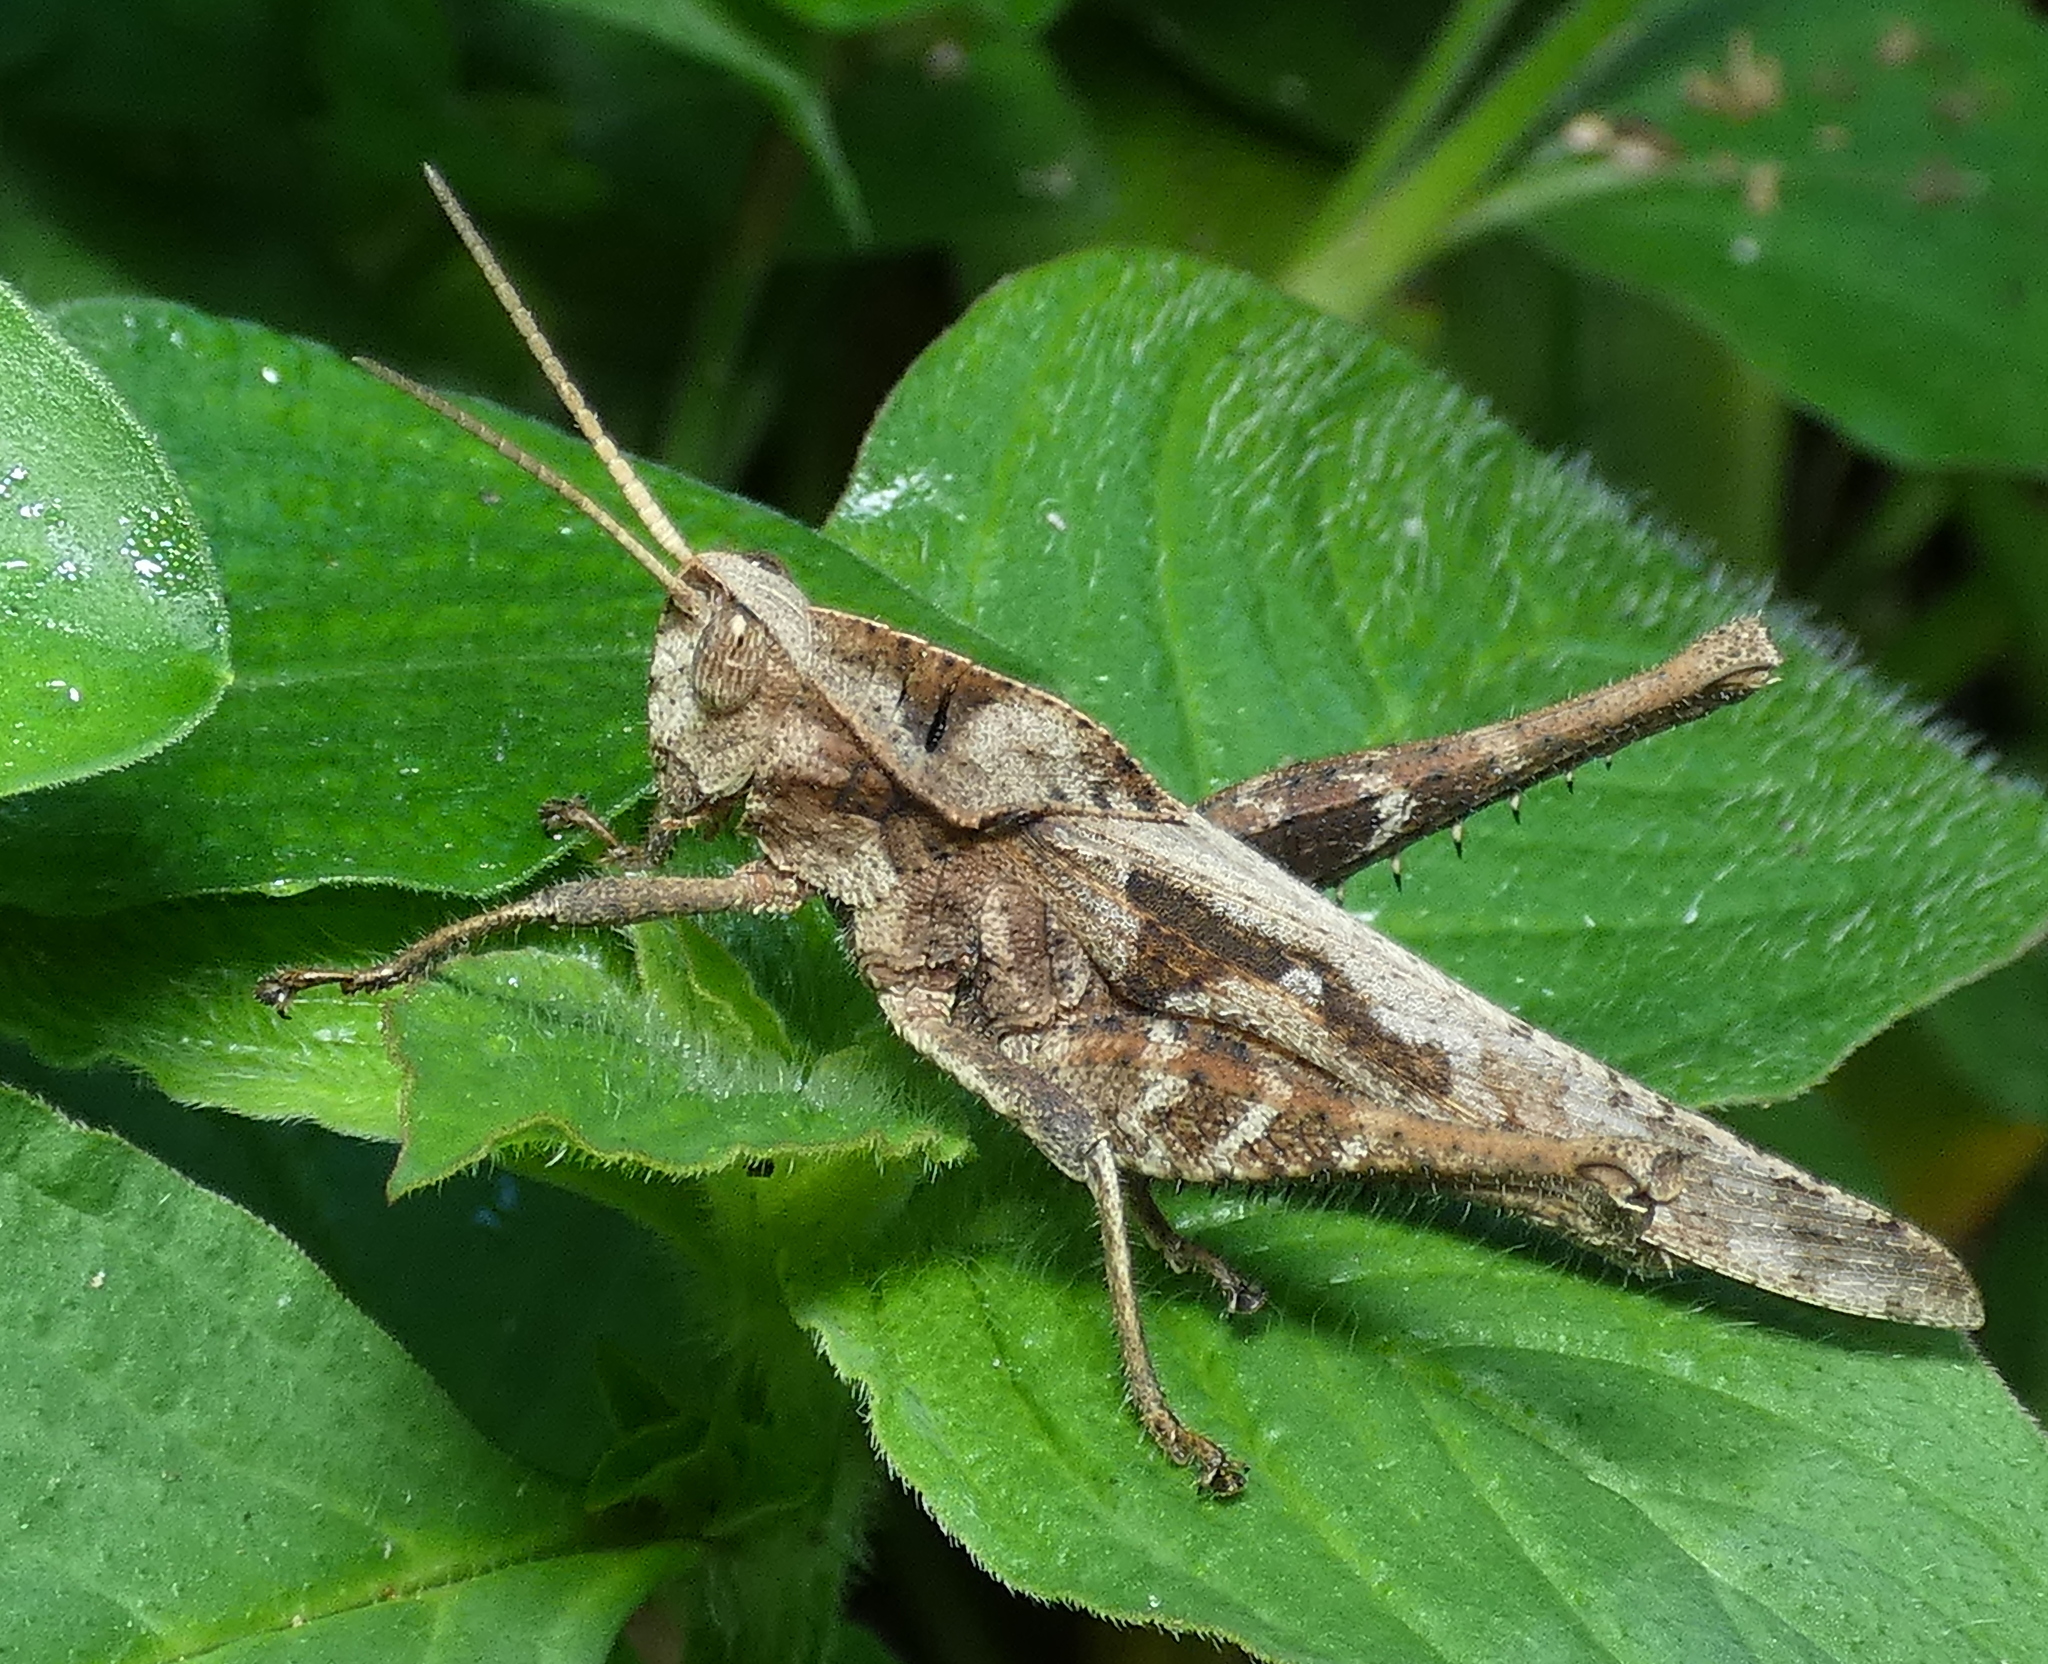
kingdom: Animalia
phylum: Arthropoda
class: Insecta
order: Orthoptera
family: Romaleidae
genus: Xyleus
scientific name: Xyleus discoideus
